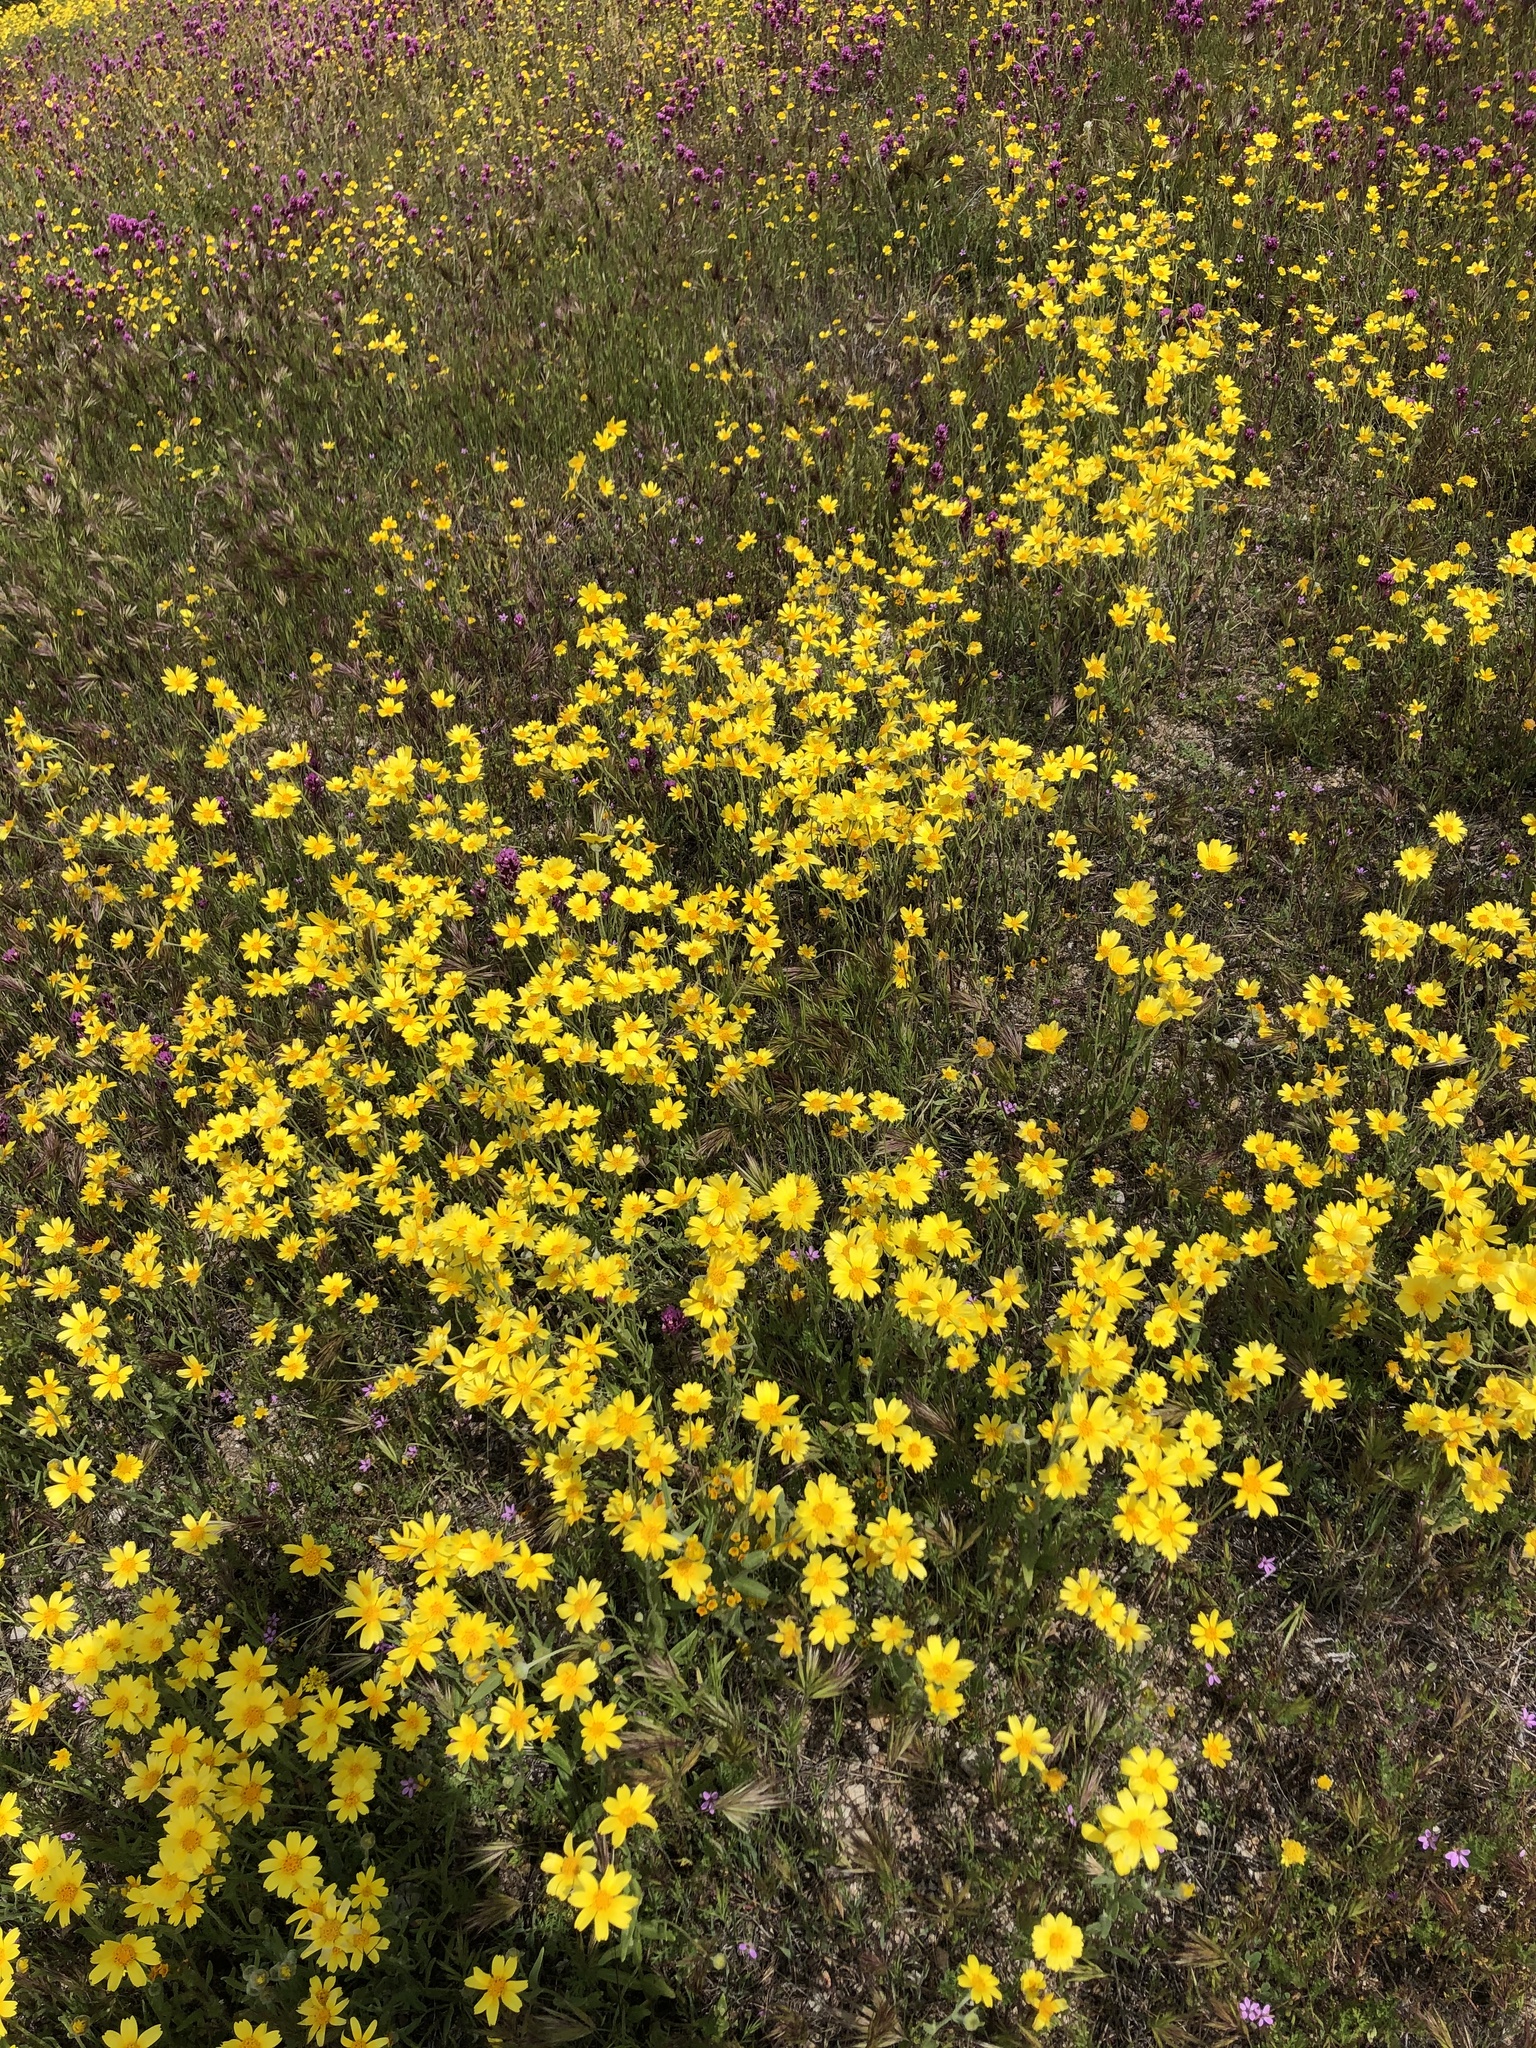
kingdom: Plantae
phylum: Tracheophyta
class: Magnoliopsida
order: Asterales
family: Asteraceae
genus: Monolopia
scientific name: Monolopia lanceolata
